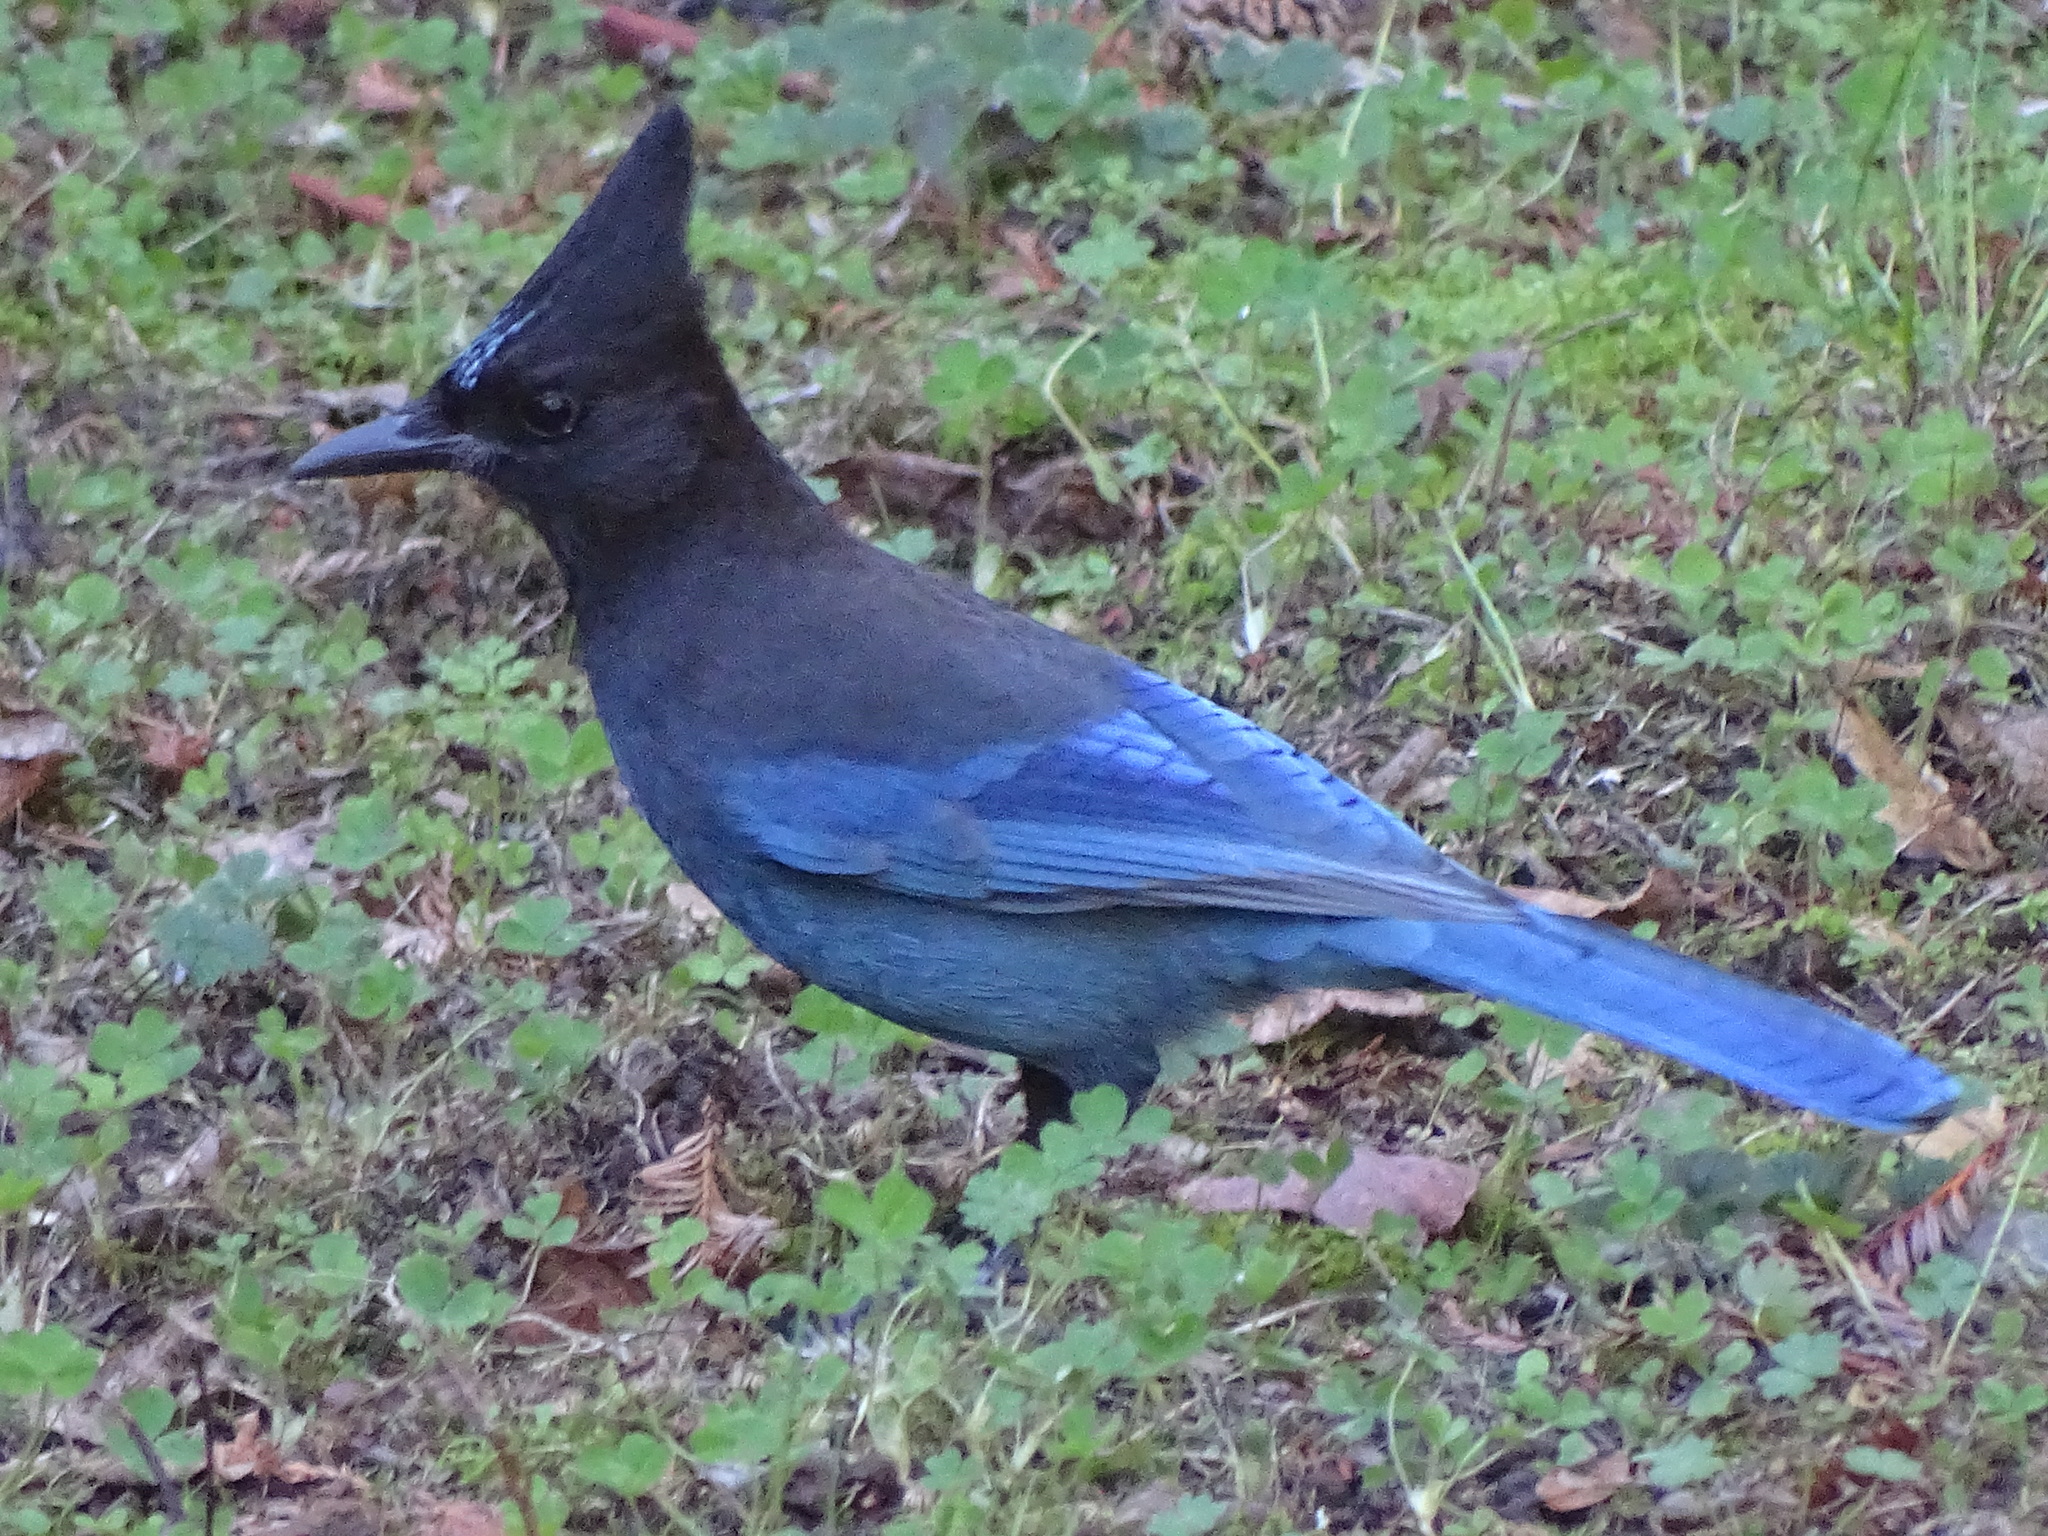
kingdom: Animalia
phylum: Chordata
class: Aves
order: Passeriformes
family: Corvidae
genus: Cyanocitta
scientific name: Cyanocitta stelleri
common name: Steller's jay
